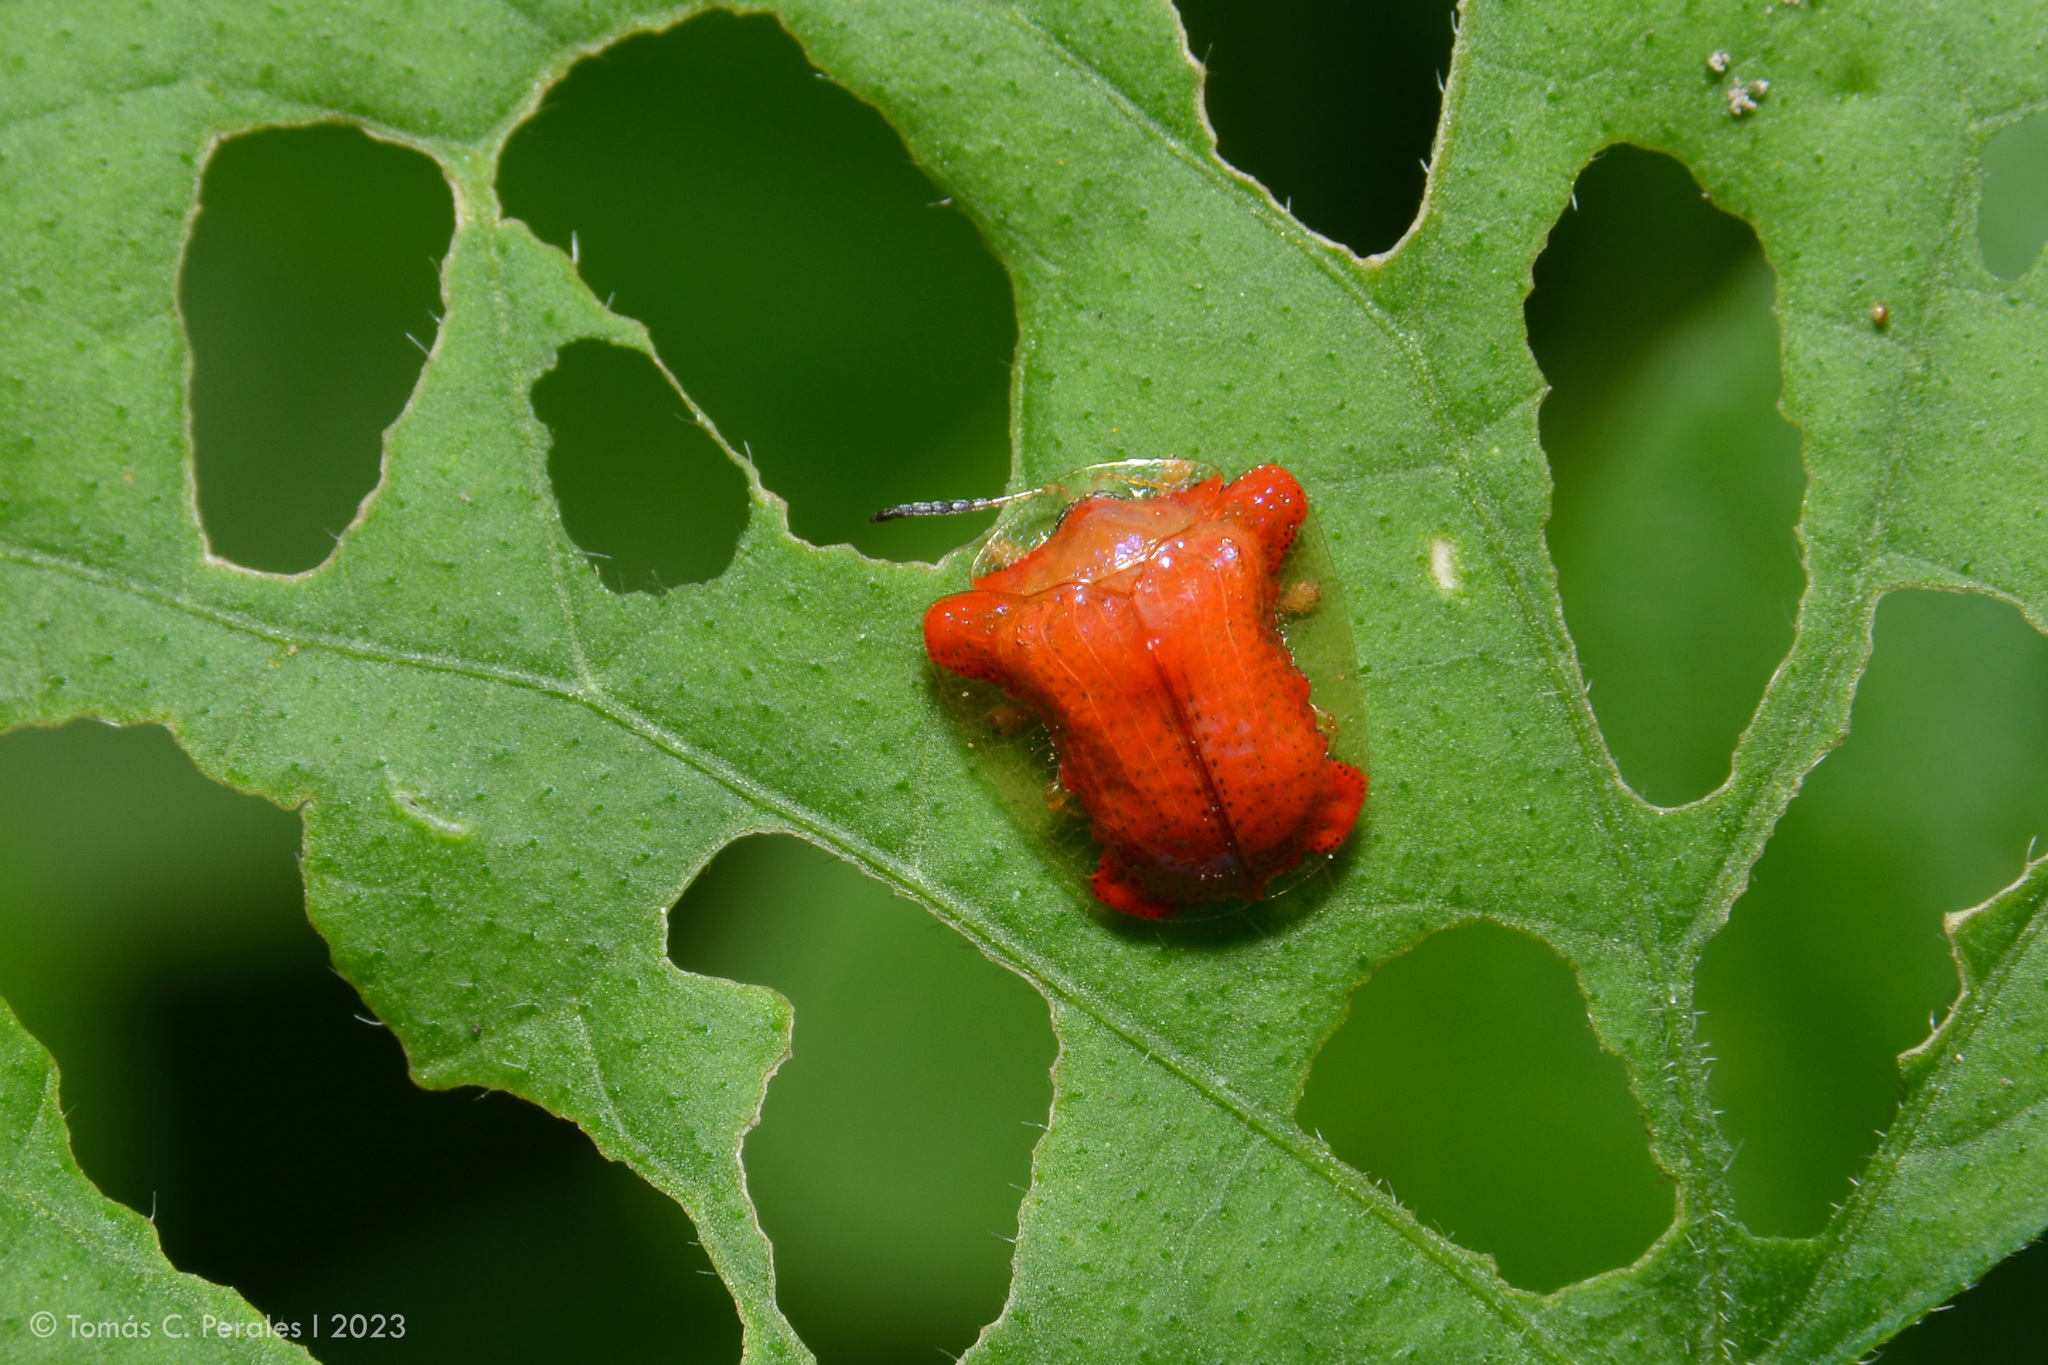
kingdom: Animalia
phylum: Arthropoda
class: Insecta
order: Coleoptera
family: Chrysomelidae
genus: Charidotella
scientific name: Charidotella rubicunda
